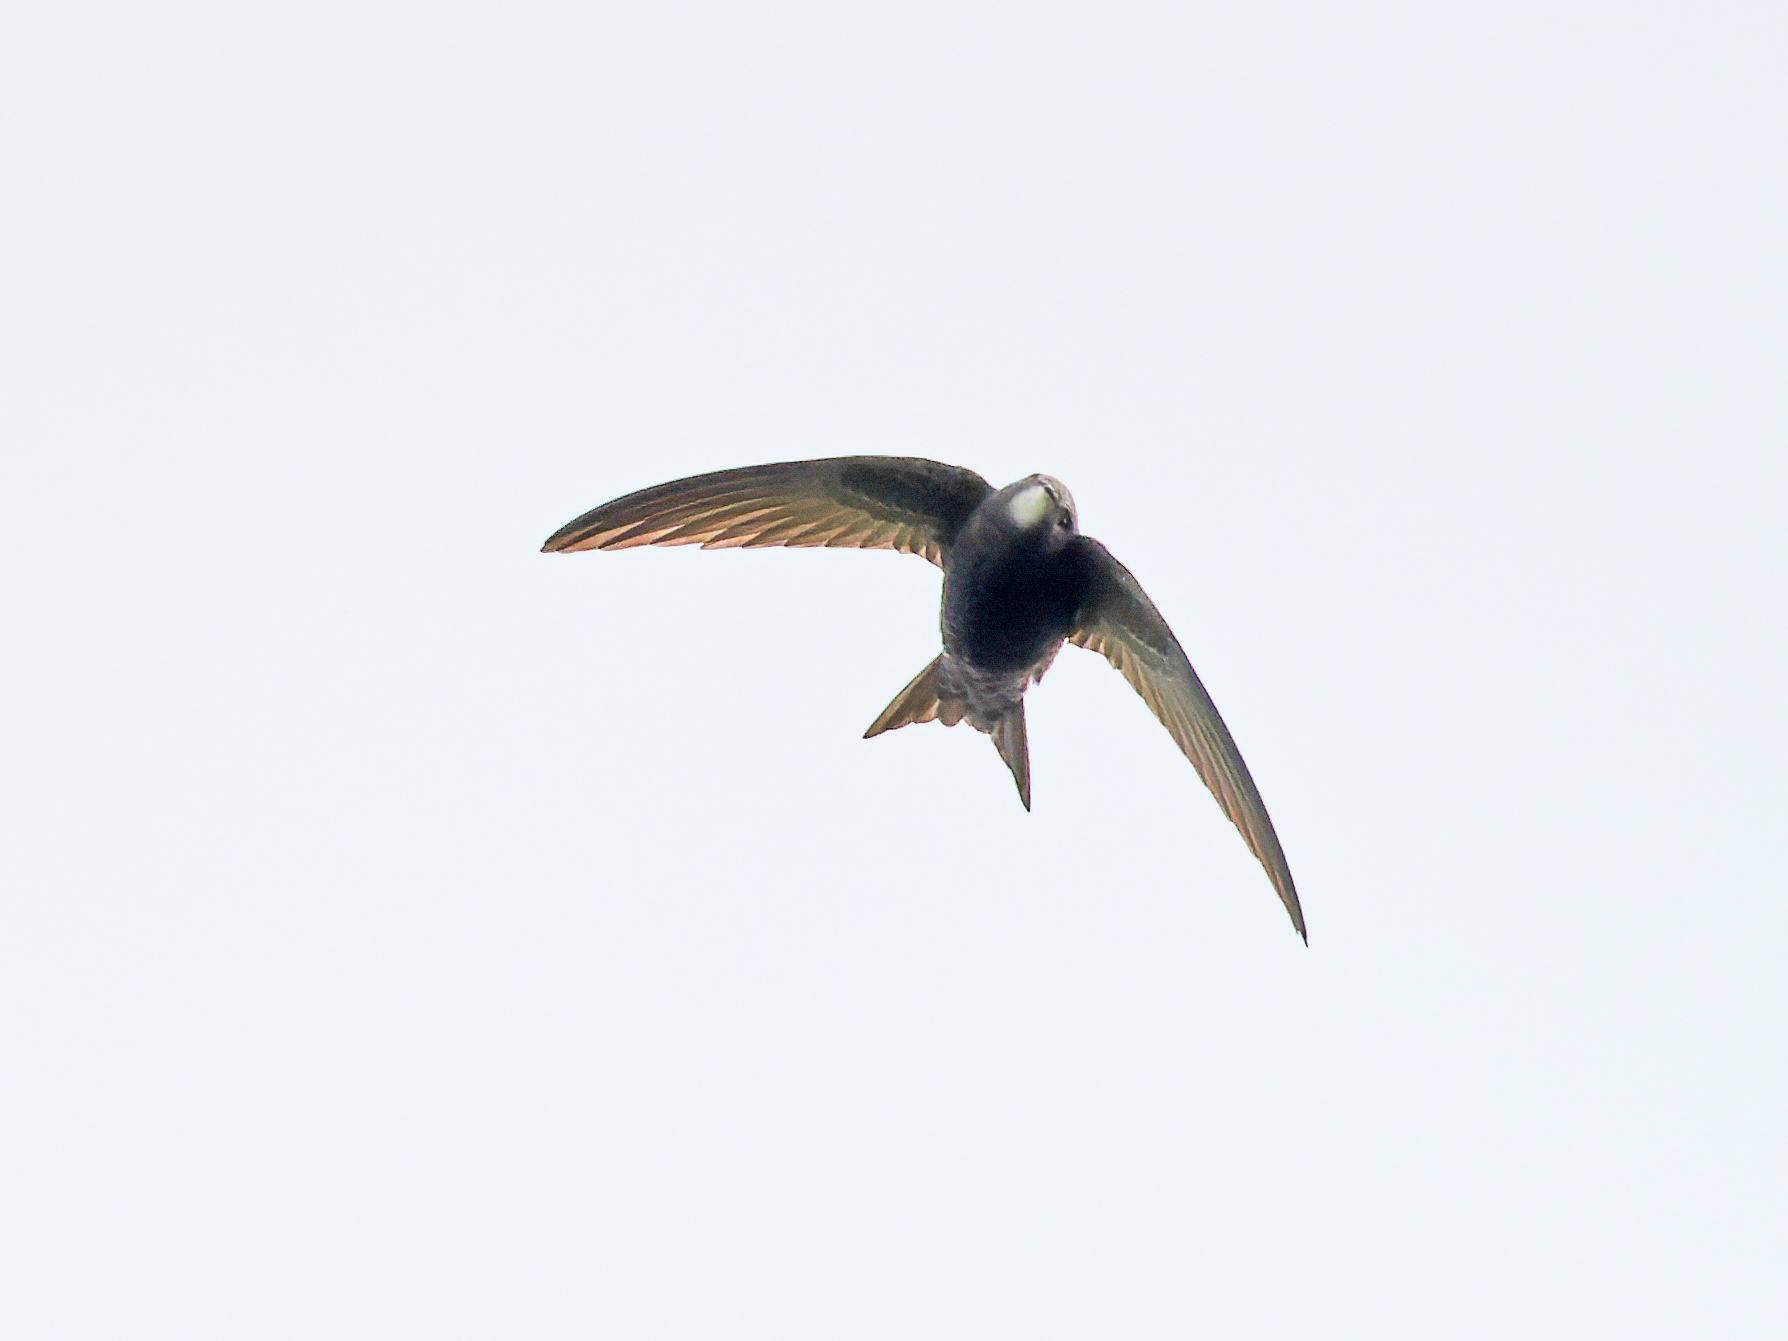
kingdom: Animalia
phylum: Chordata
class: Aves
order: Apodiformes
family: Apodidae
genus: Apus
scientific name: Apus apus
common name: Common swift
